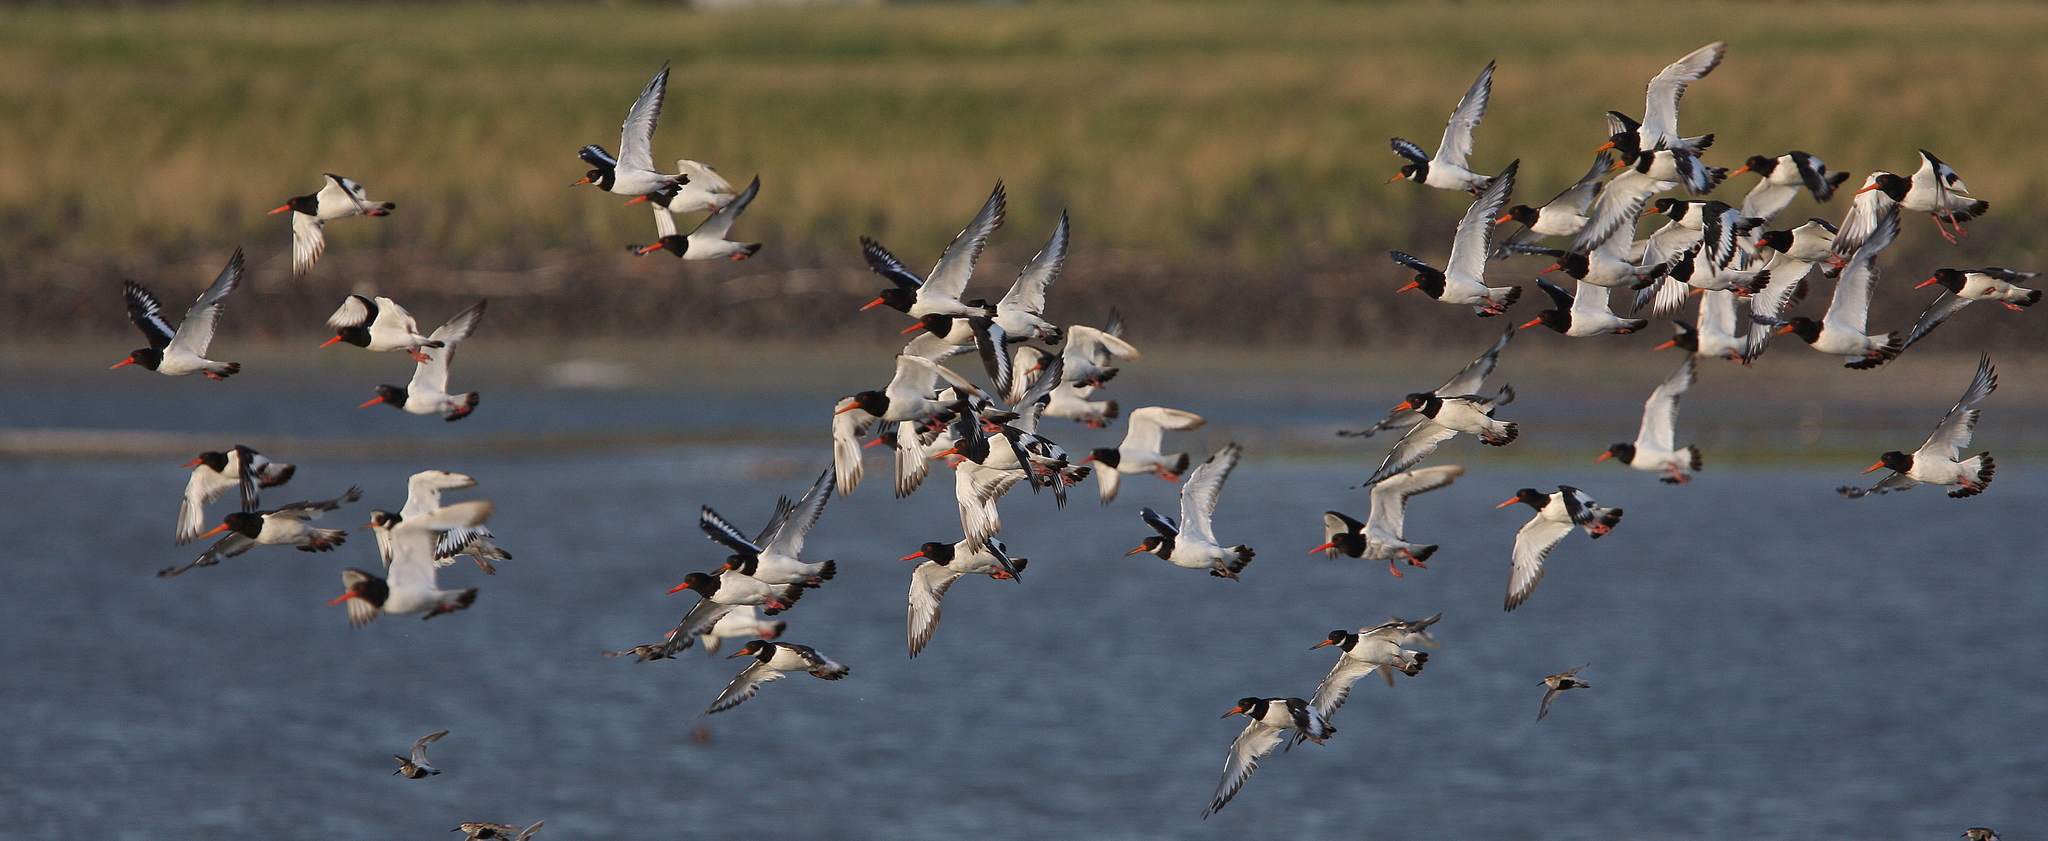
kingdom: Animalia
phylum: Chordata
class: Aves
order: Charadriiformes
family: Haematopodidae
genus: Haematopus
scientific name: Haematopus ostralegus
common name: Eurasian oystercatcher
